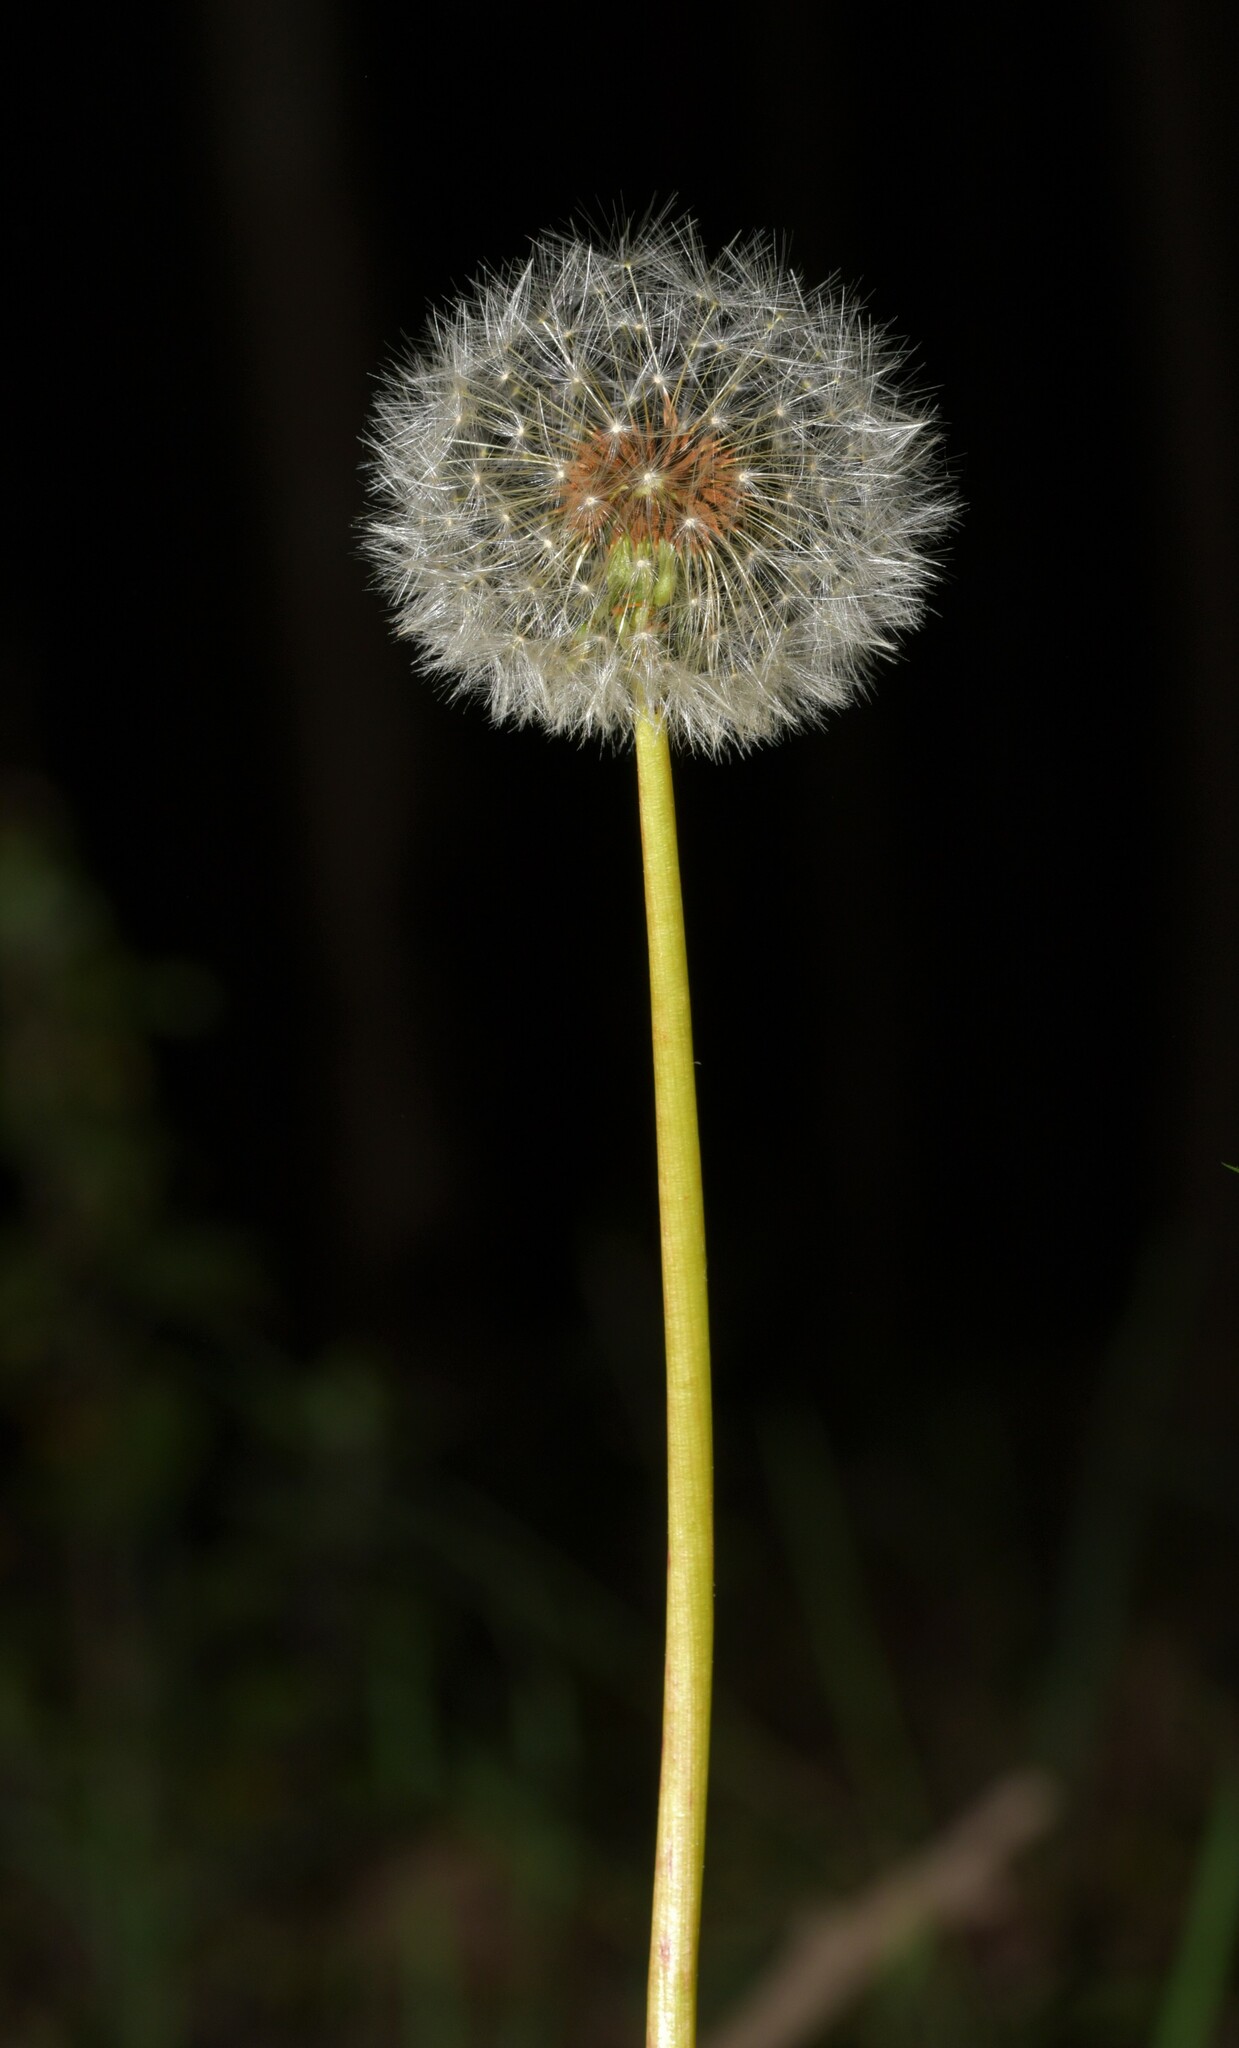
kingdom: Plantae
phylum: Tracheophyta
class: Magnoliopsida
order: Asterales
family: Asteraceae
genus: Taraxacum
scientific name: Taraxacum officinale
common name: Common dandelion
